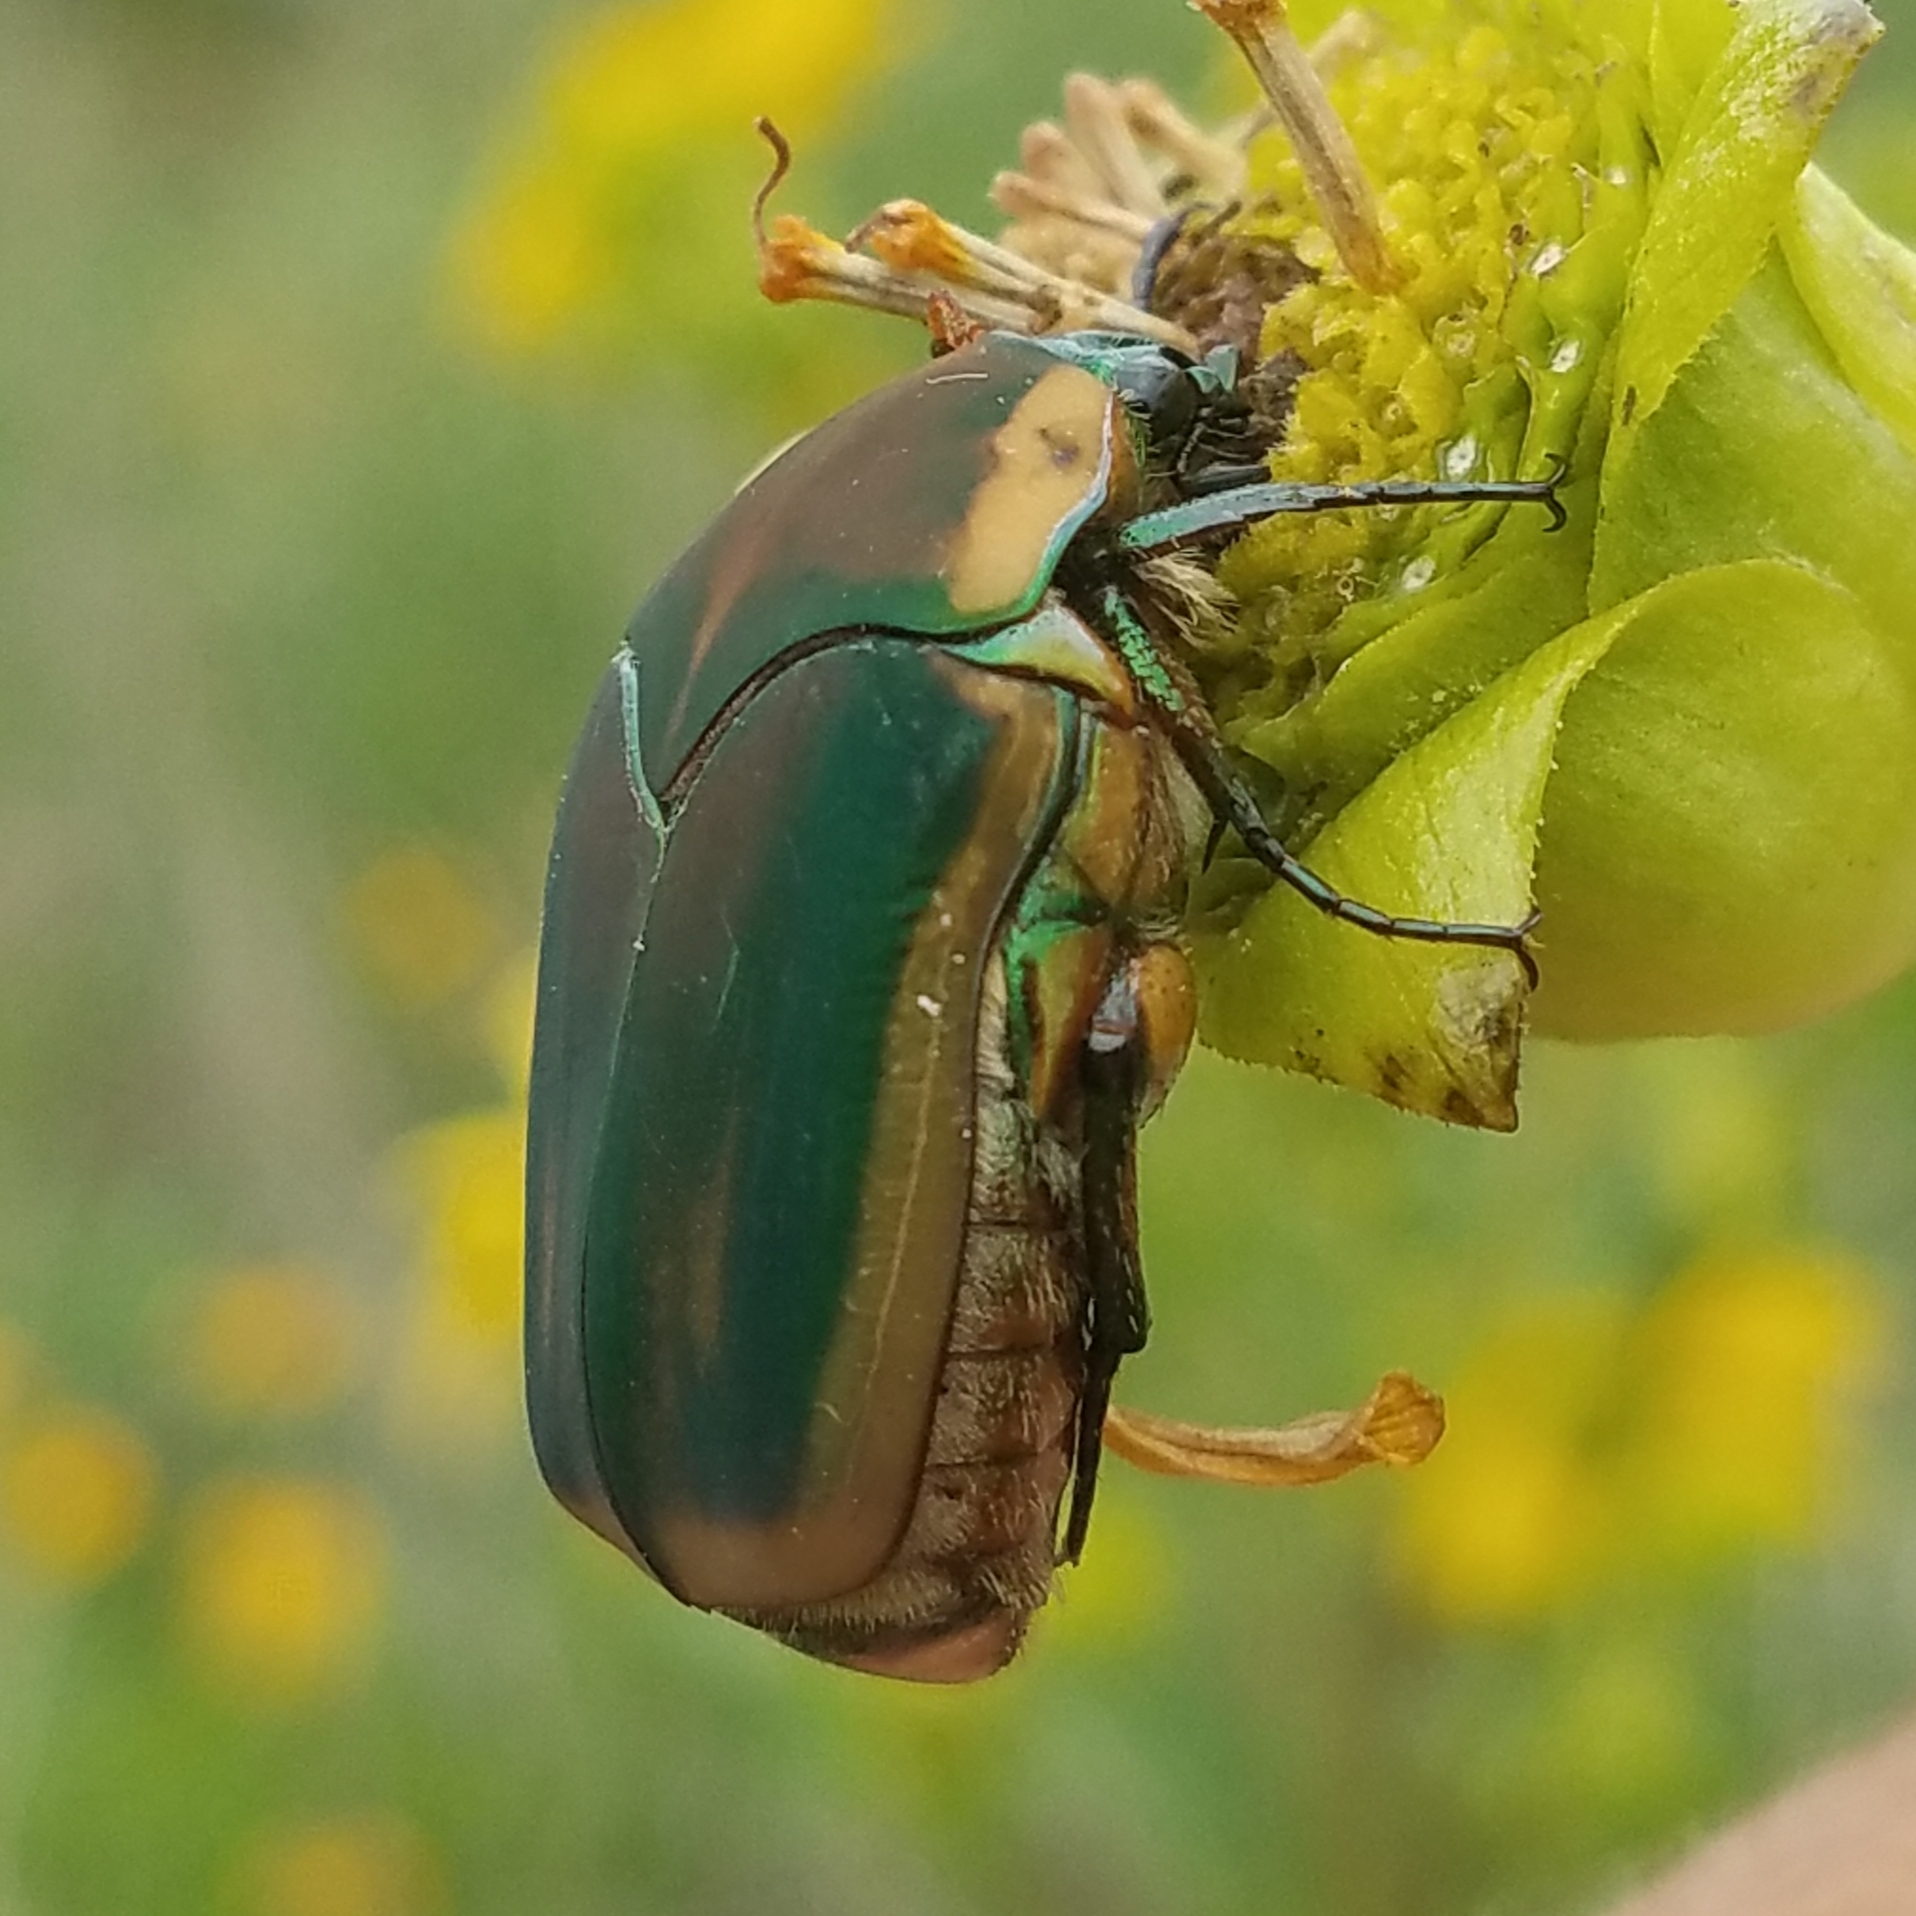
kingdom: Animalia
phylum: Arthropoda
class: Insecta
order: Coleoptera
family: Scarabaeidae
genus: Cotinis
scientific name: Cotinis nitida
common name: Common green june beetle
